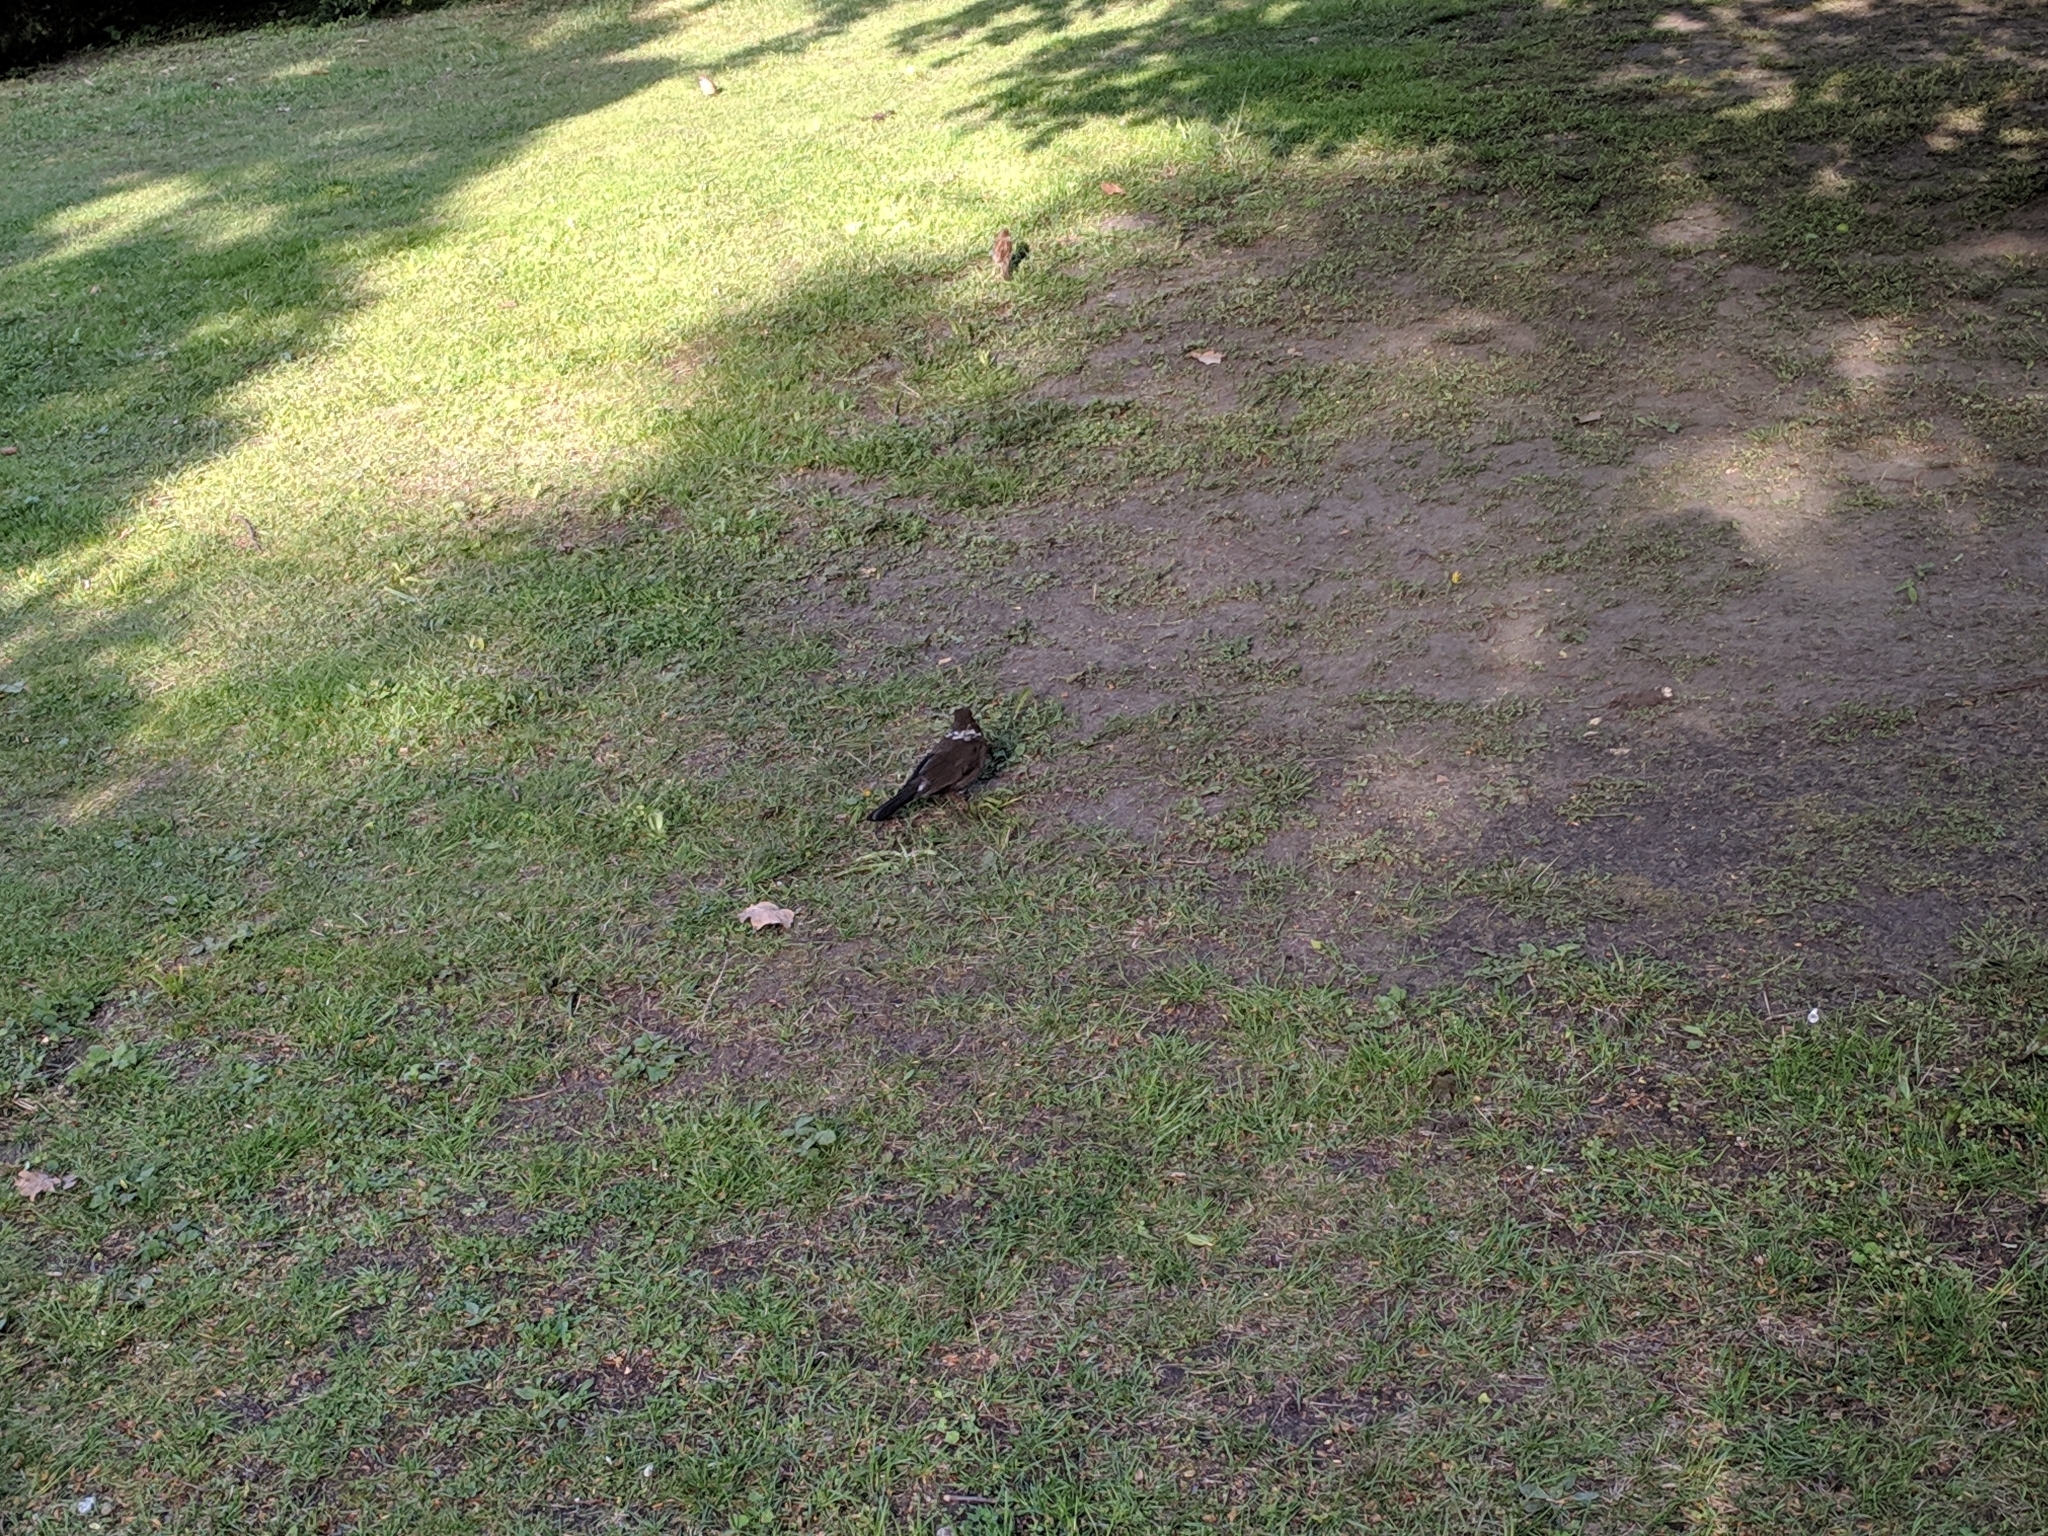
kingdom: Animalia
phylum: Chordata
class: Aves
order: Passeriformes
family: Turdidae
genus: Turdus
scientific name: Turdus merula
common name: Common blackbird
